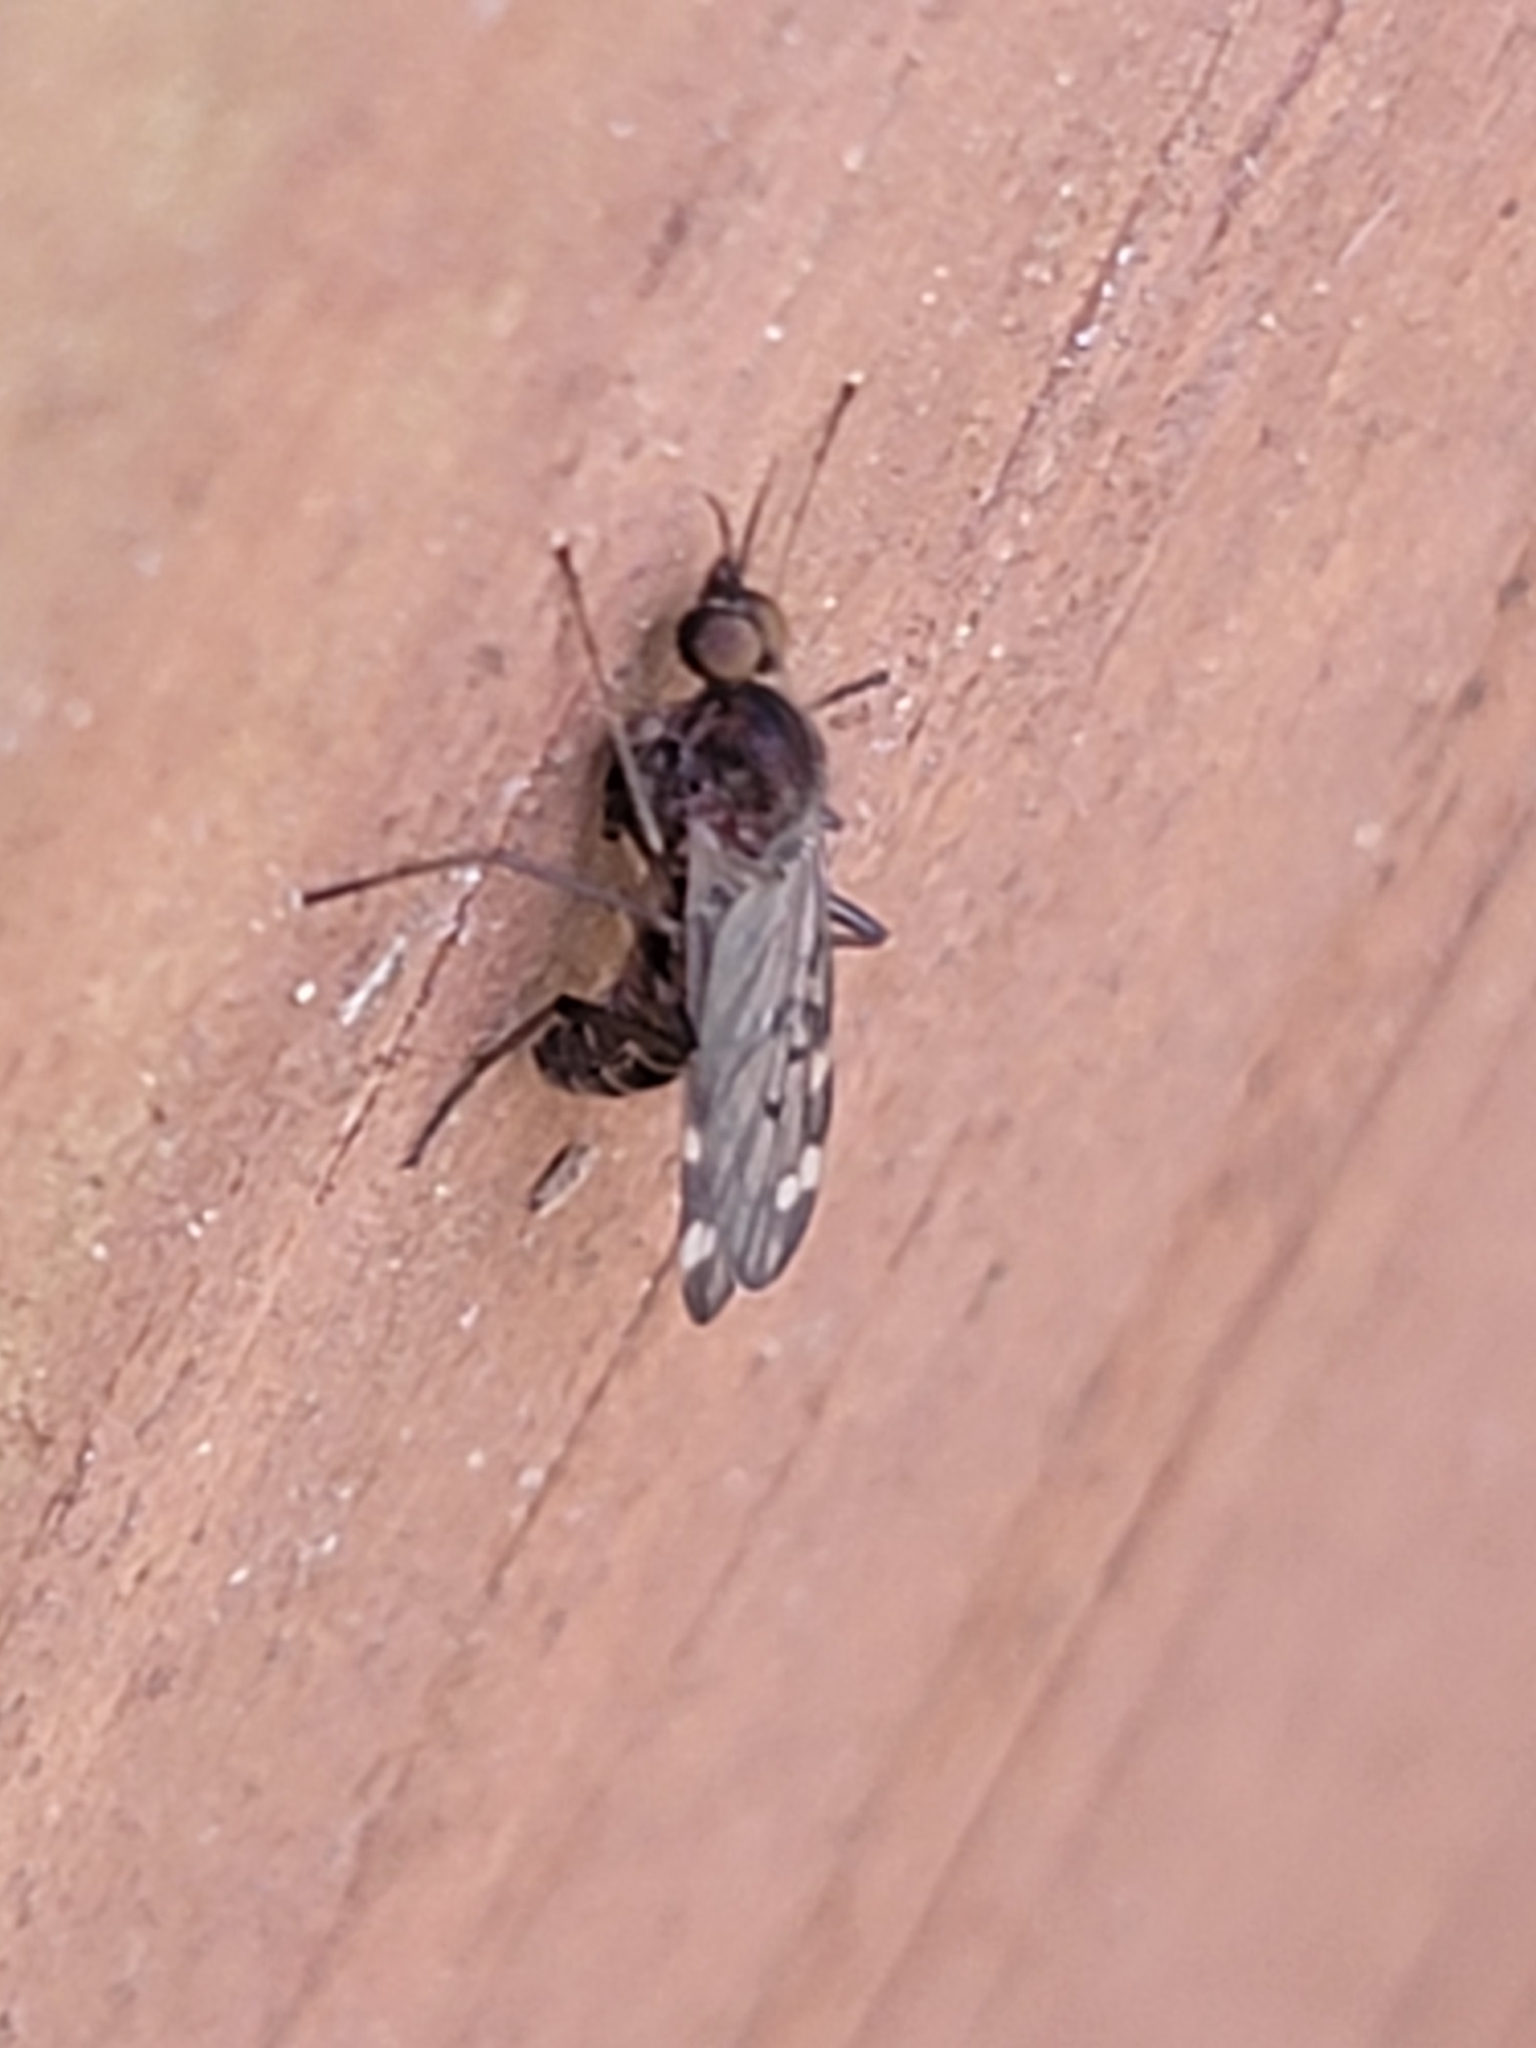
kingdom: Animalia
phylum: Arthropoda
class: Insecta
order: Diptera
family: Anisopodidae
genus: Sylvicola
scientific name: Sylvicola alternata
